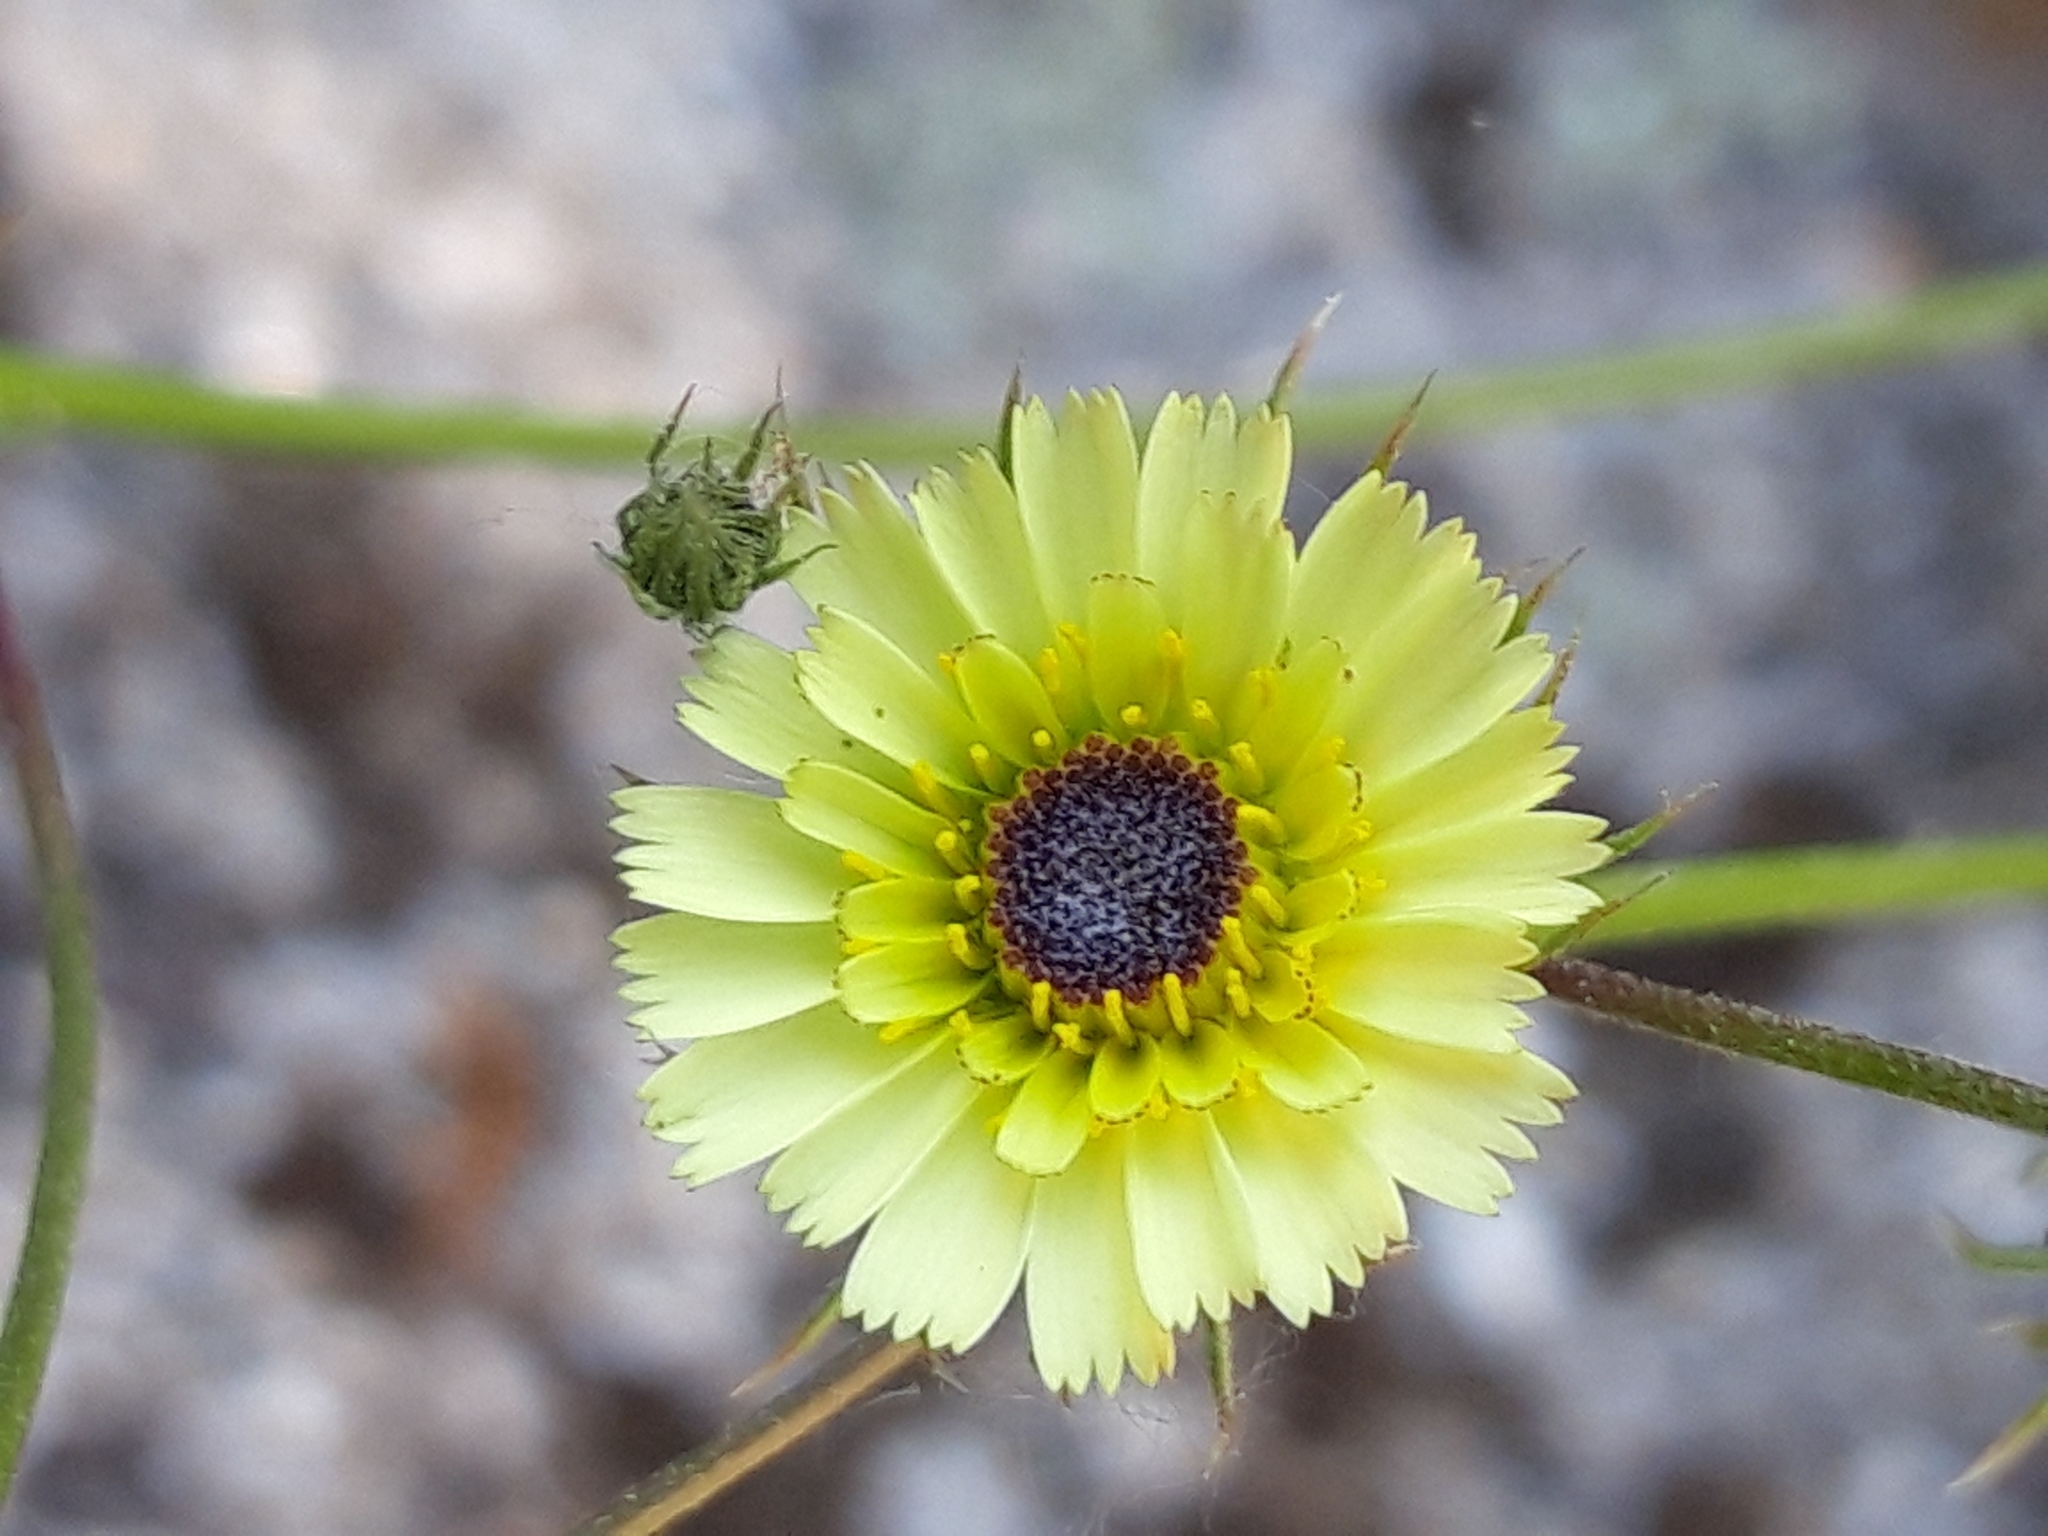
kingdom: Plantae
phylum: Tracheophyta
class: Magnoliopsida
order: Asterales
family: Asteraceae
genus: Tolpis
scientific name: Tolpis barbata
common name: Yellow hawkweed
